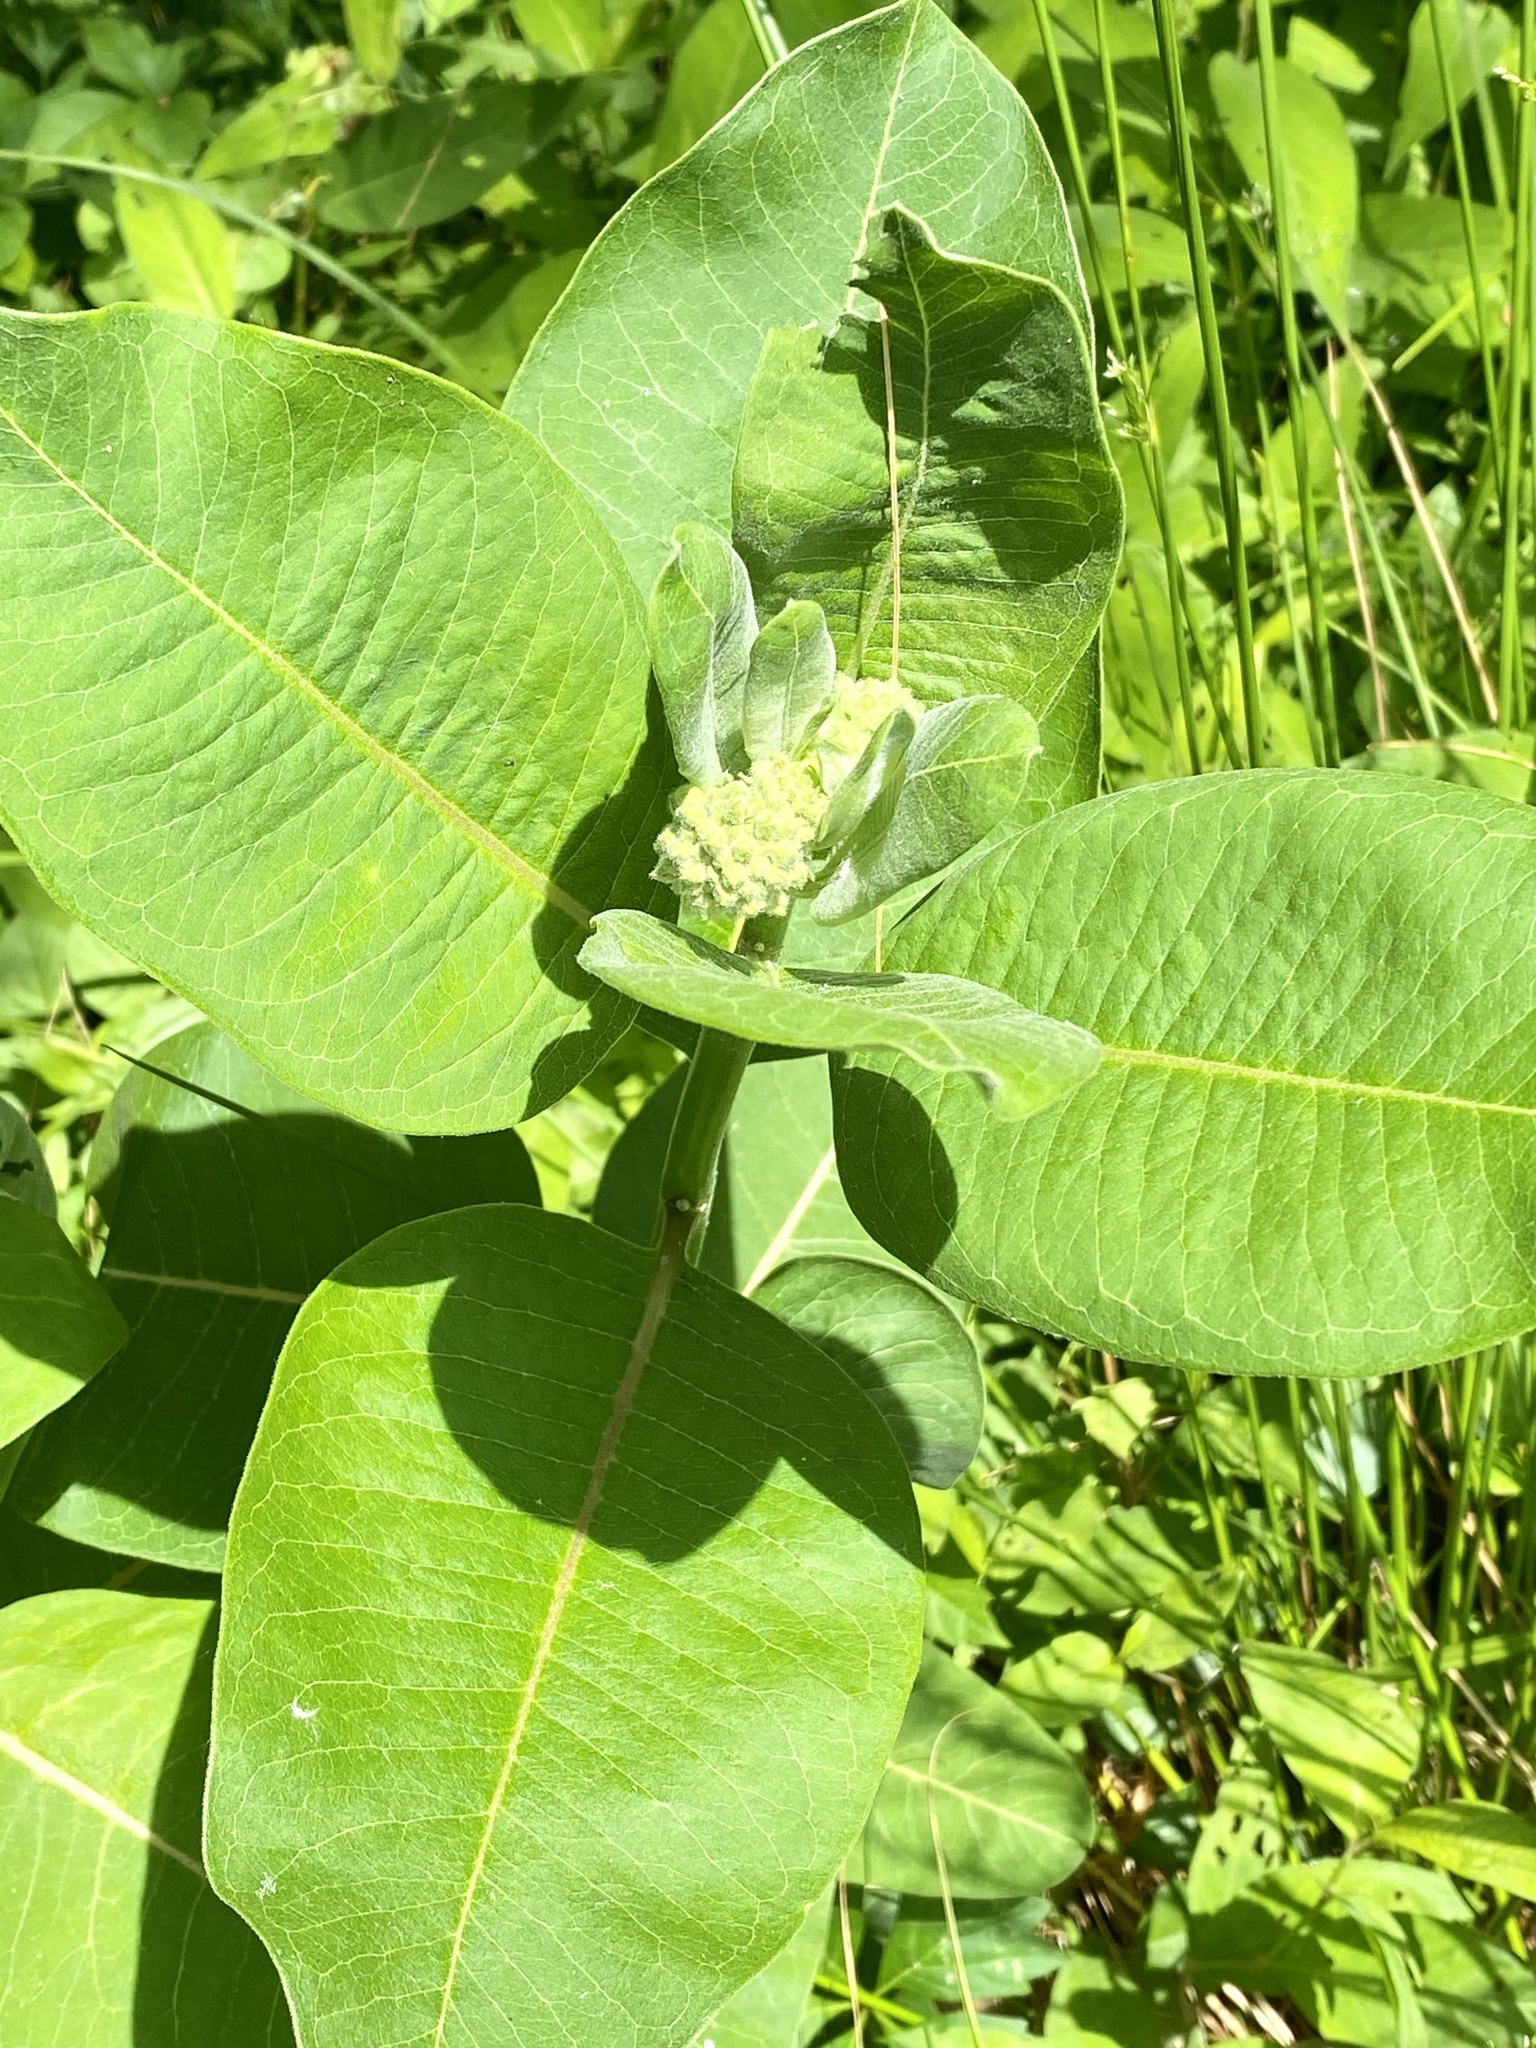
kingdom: Plantae
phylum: Tracheophyta
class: Magnoliopsida
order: Gentianales
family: Apocynaceae
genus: Asclepias
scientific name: Asclepias syriaca
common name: Common milkweed
